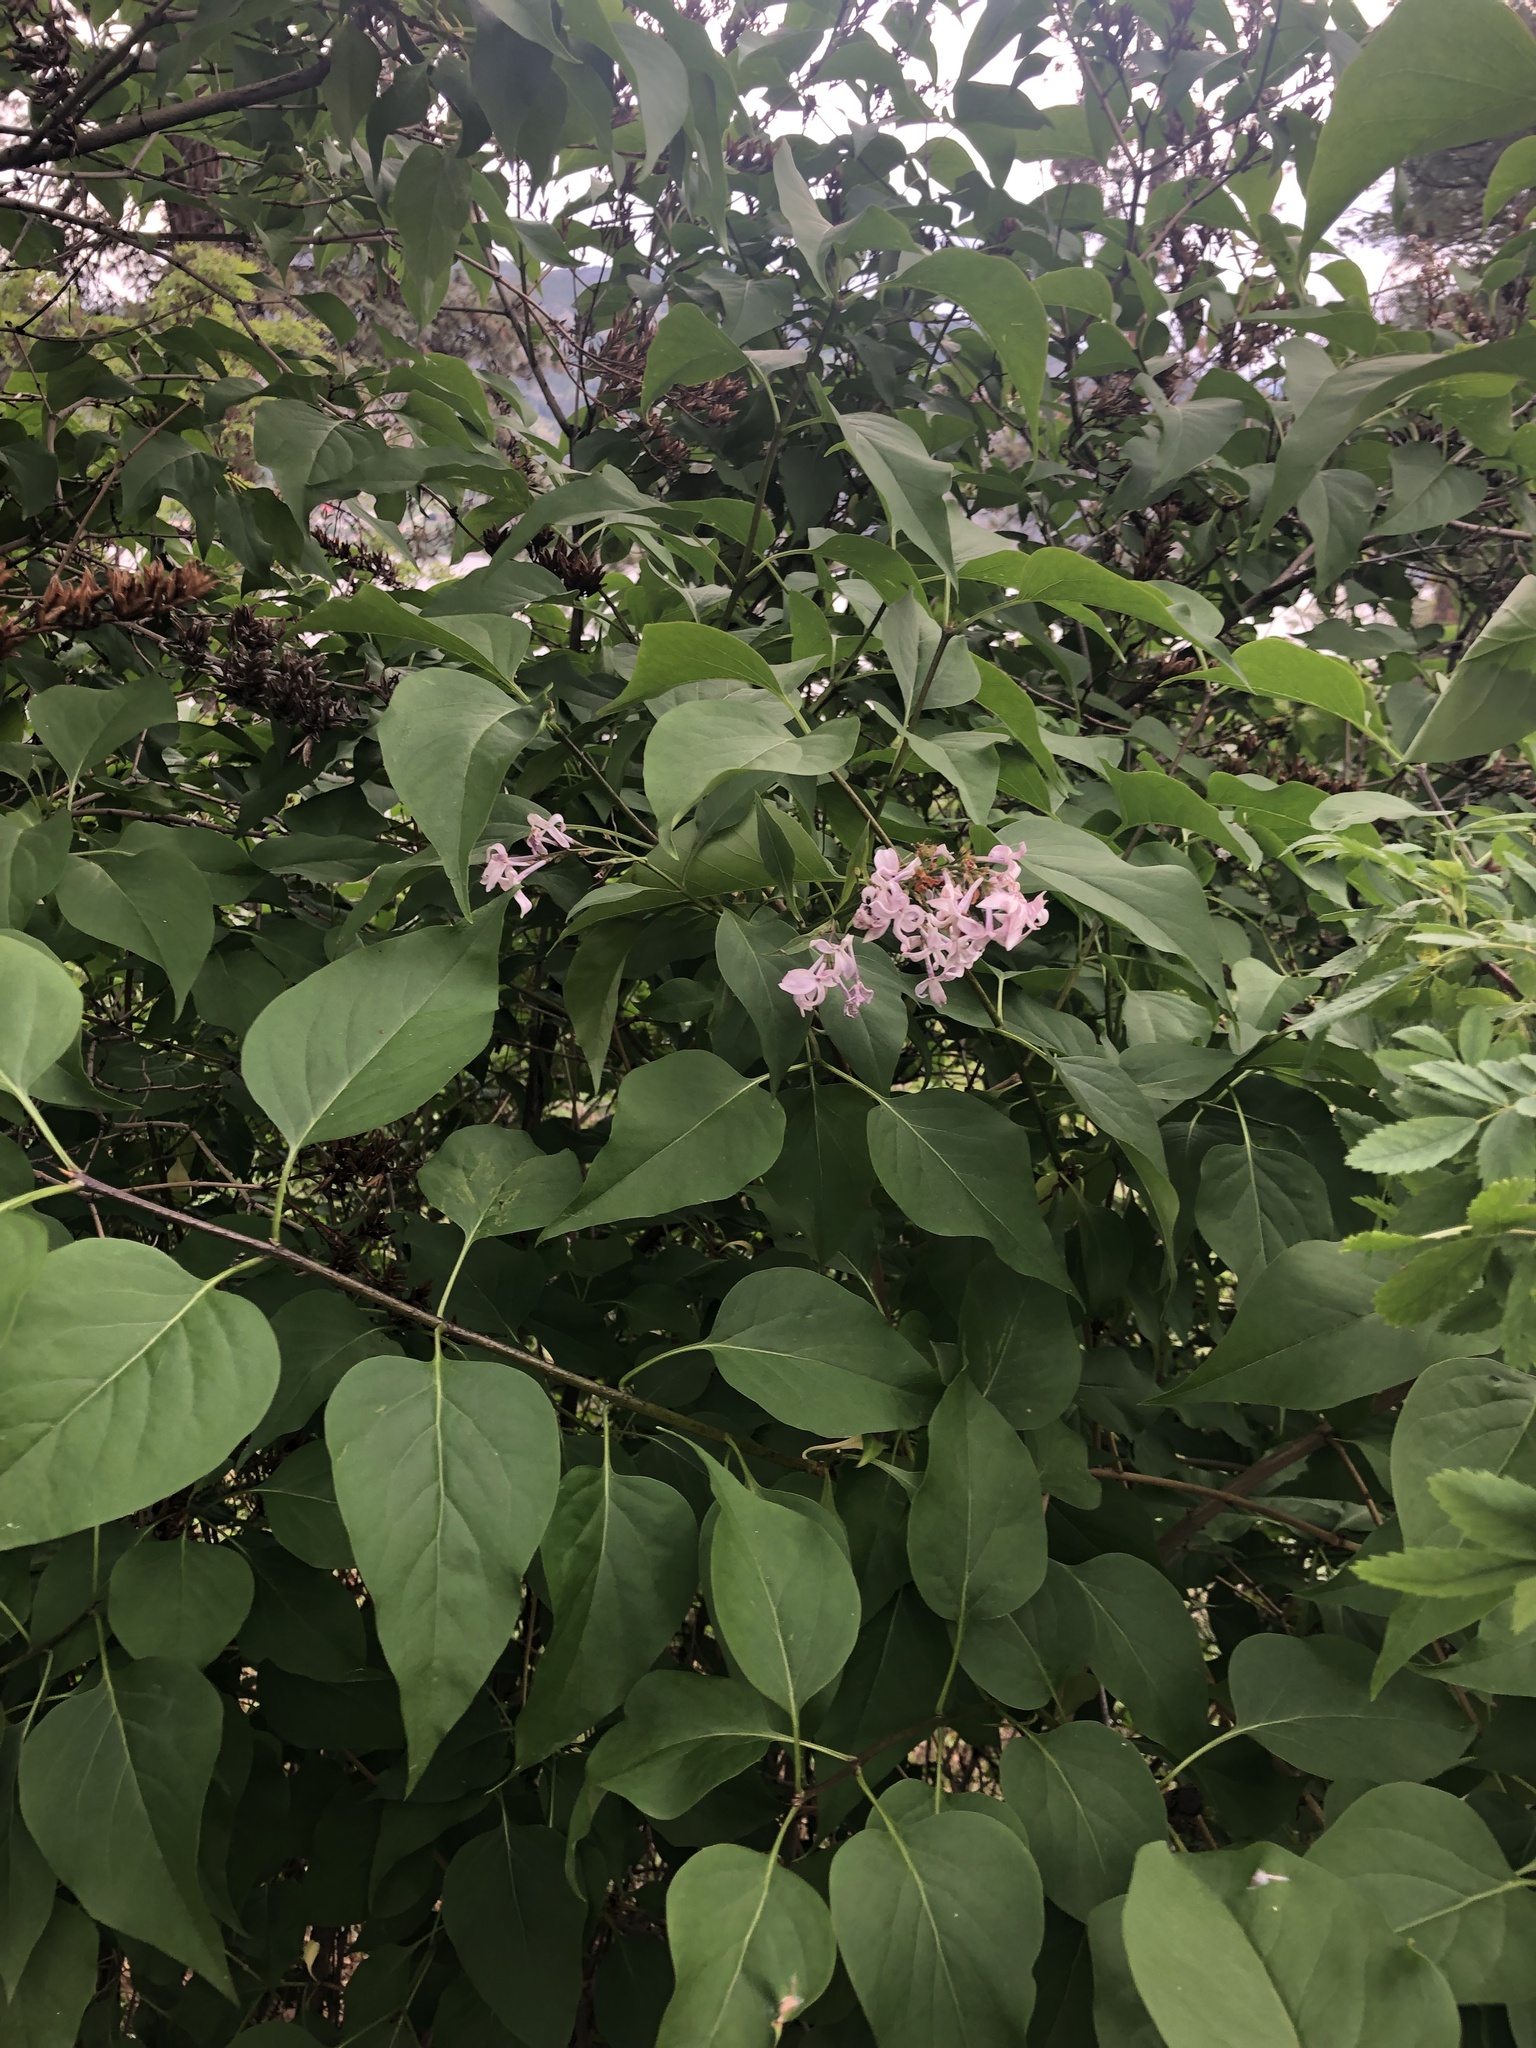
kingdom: Plantae
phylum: Tracheophyta
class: Magnoliopsida
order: Lamiales
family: Oleaceae
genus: Syringa
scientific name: Syringa vulgaris
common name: Common lilac
